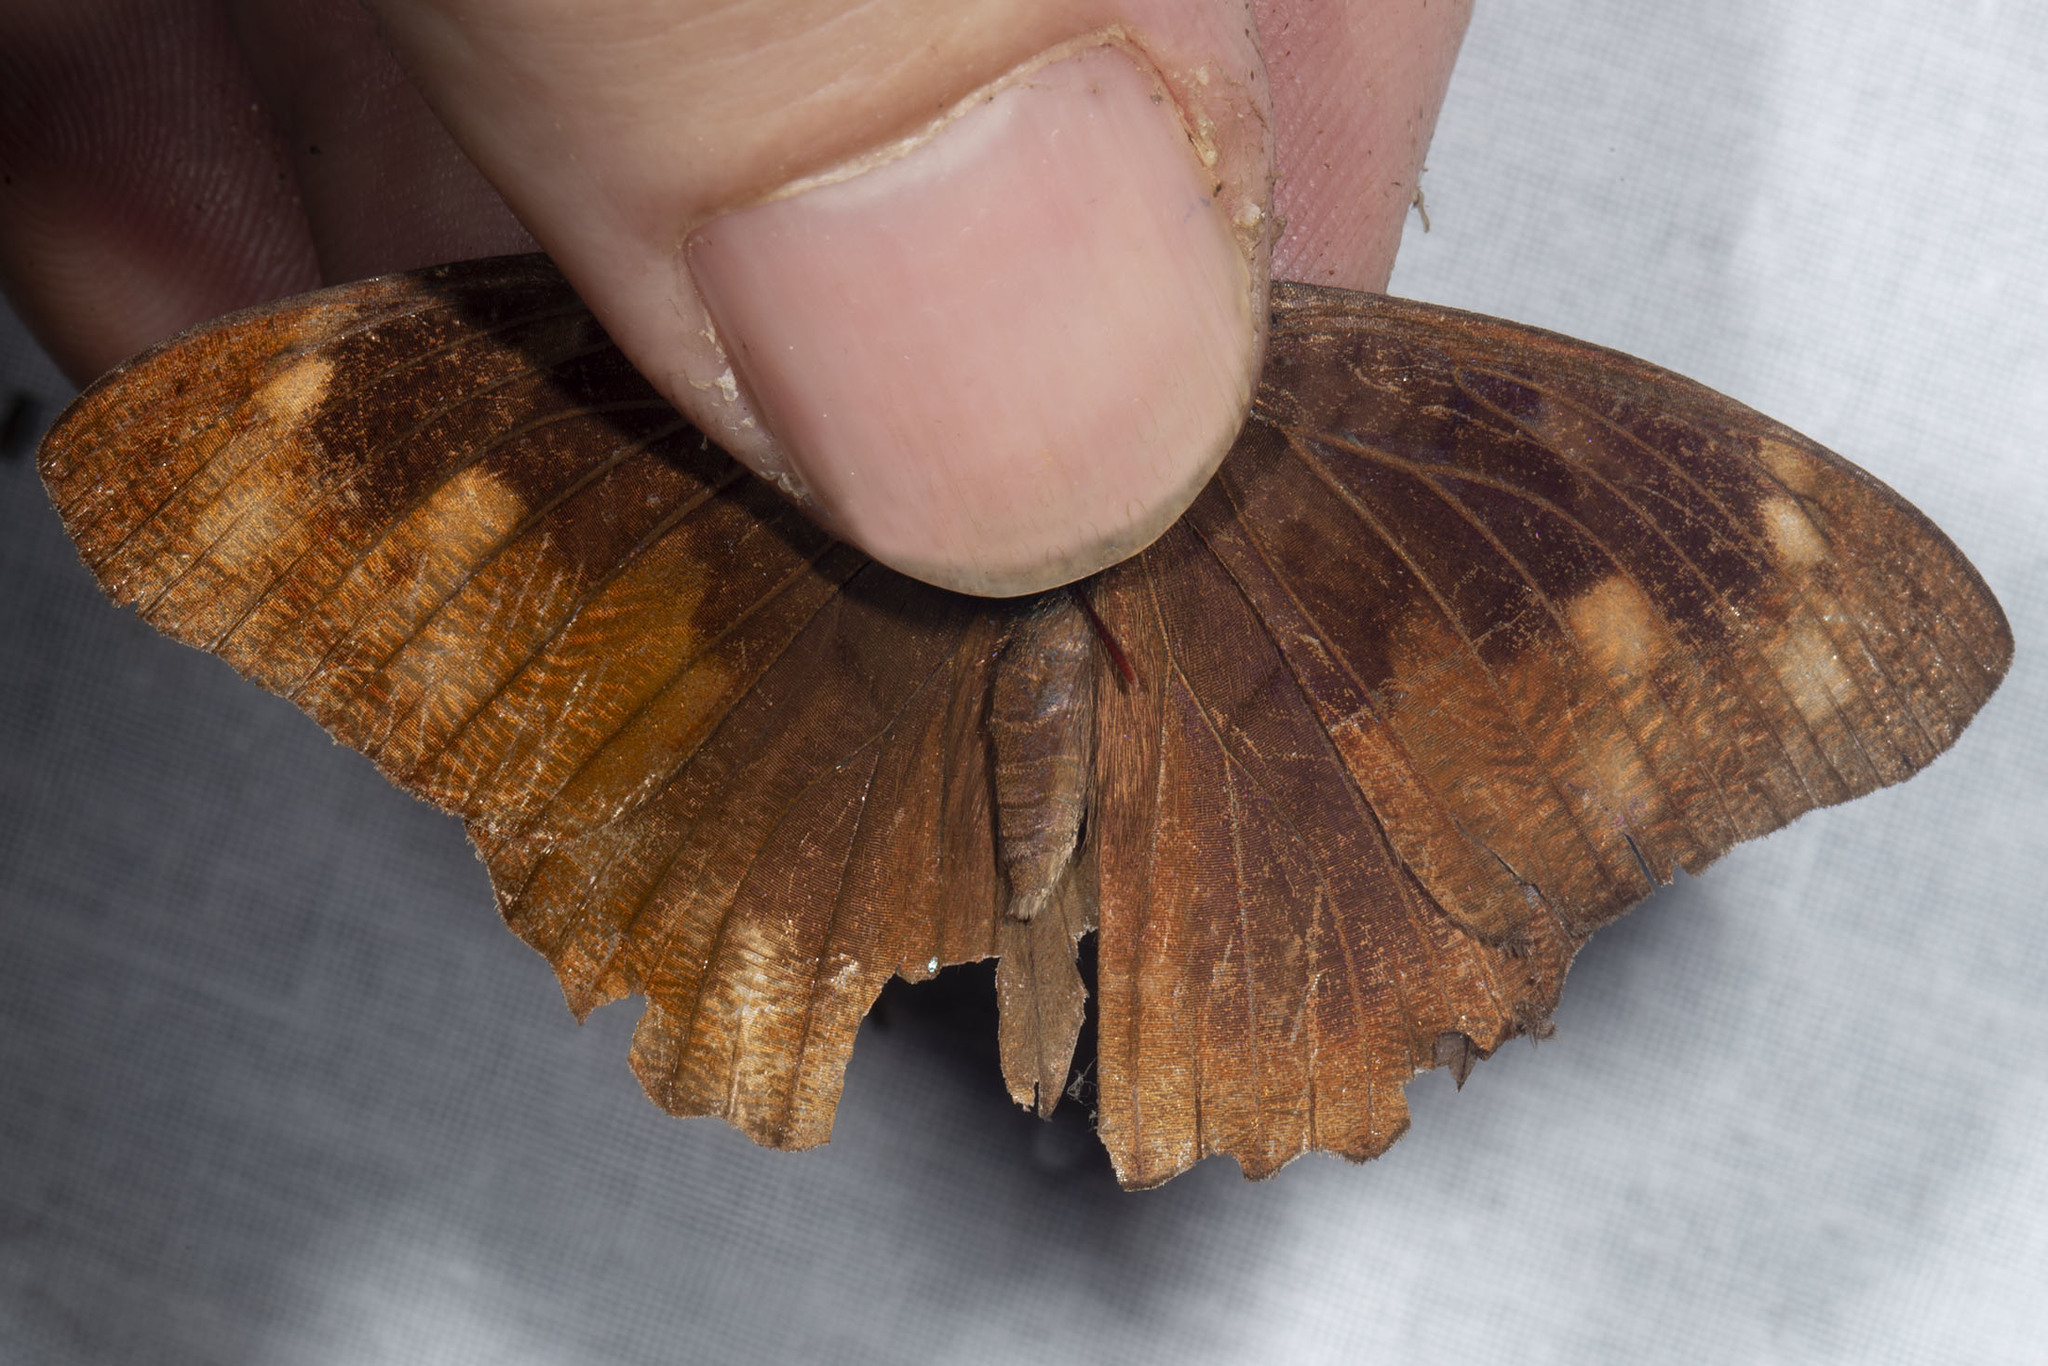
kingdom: Animalia
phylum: Arthropoda
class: Insecta
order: Lepidoptera
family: Nymphalidae
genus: Eunica
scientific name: Eunica malvina
